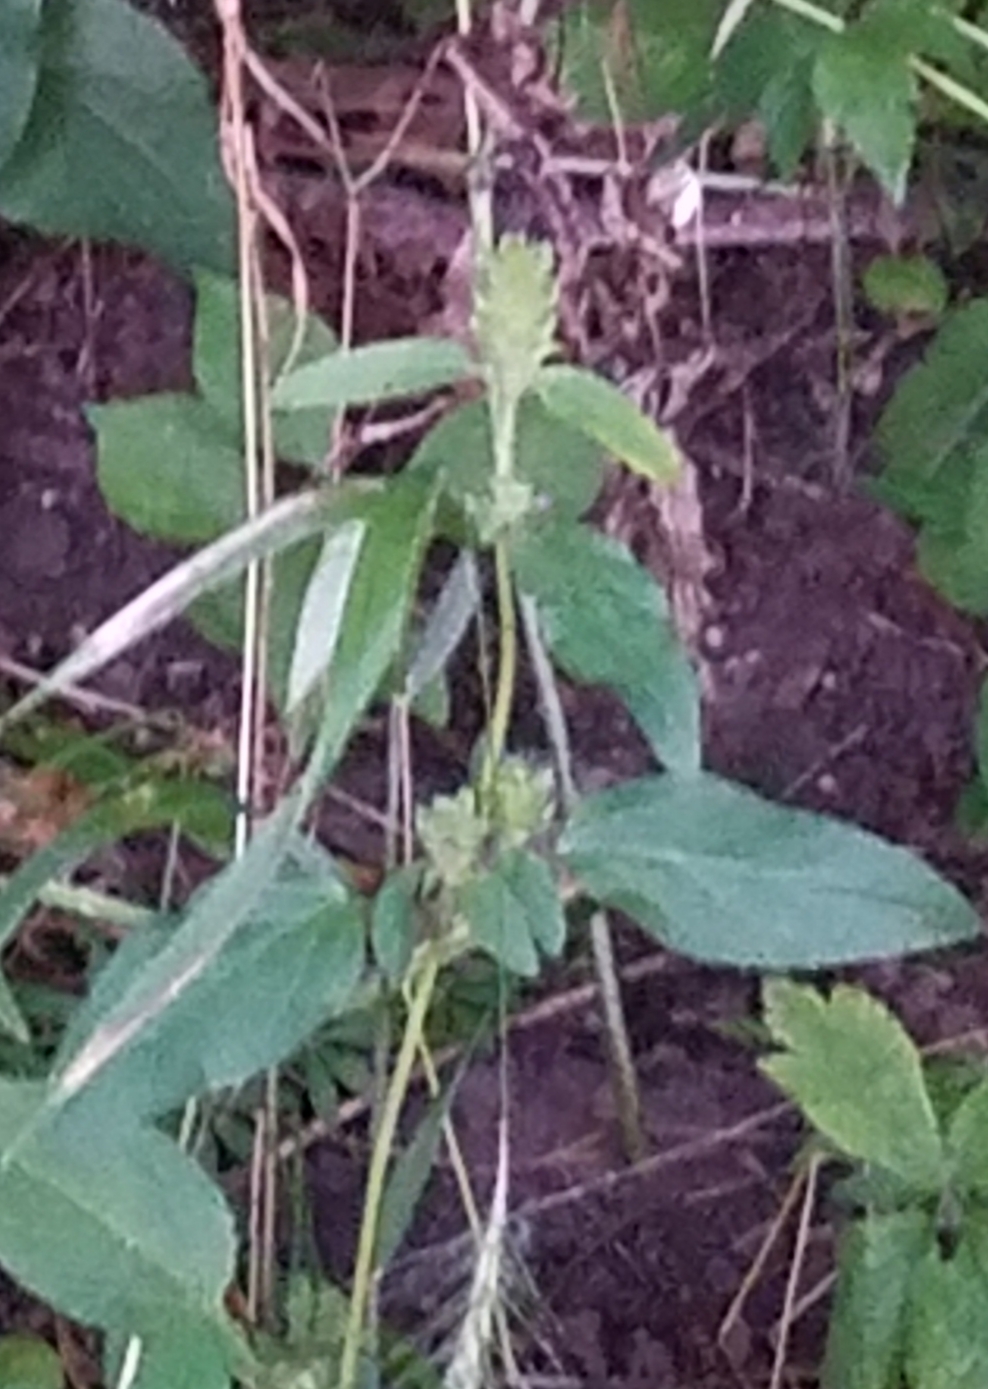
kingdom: Plantae
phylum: Tracheophyta
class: Magnoliopsida
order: Lamiales
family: Lamiaceae
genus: Prunella
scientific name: Prunella vulgaris
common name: Heal-all
